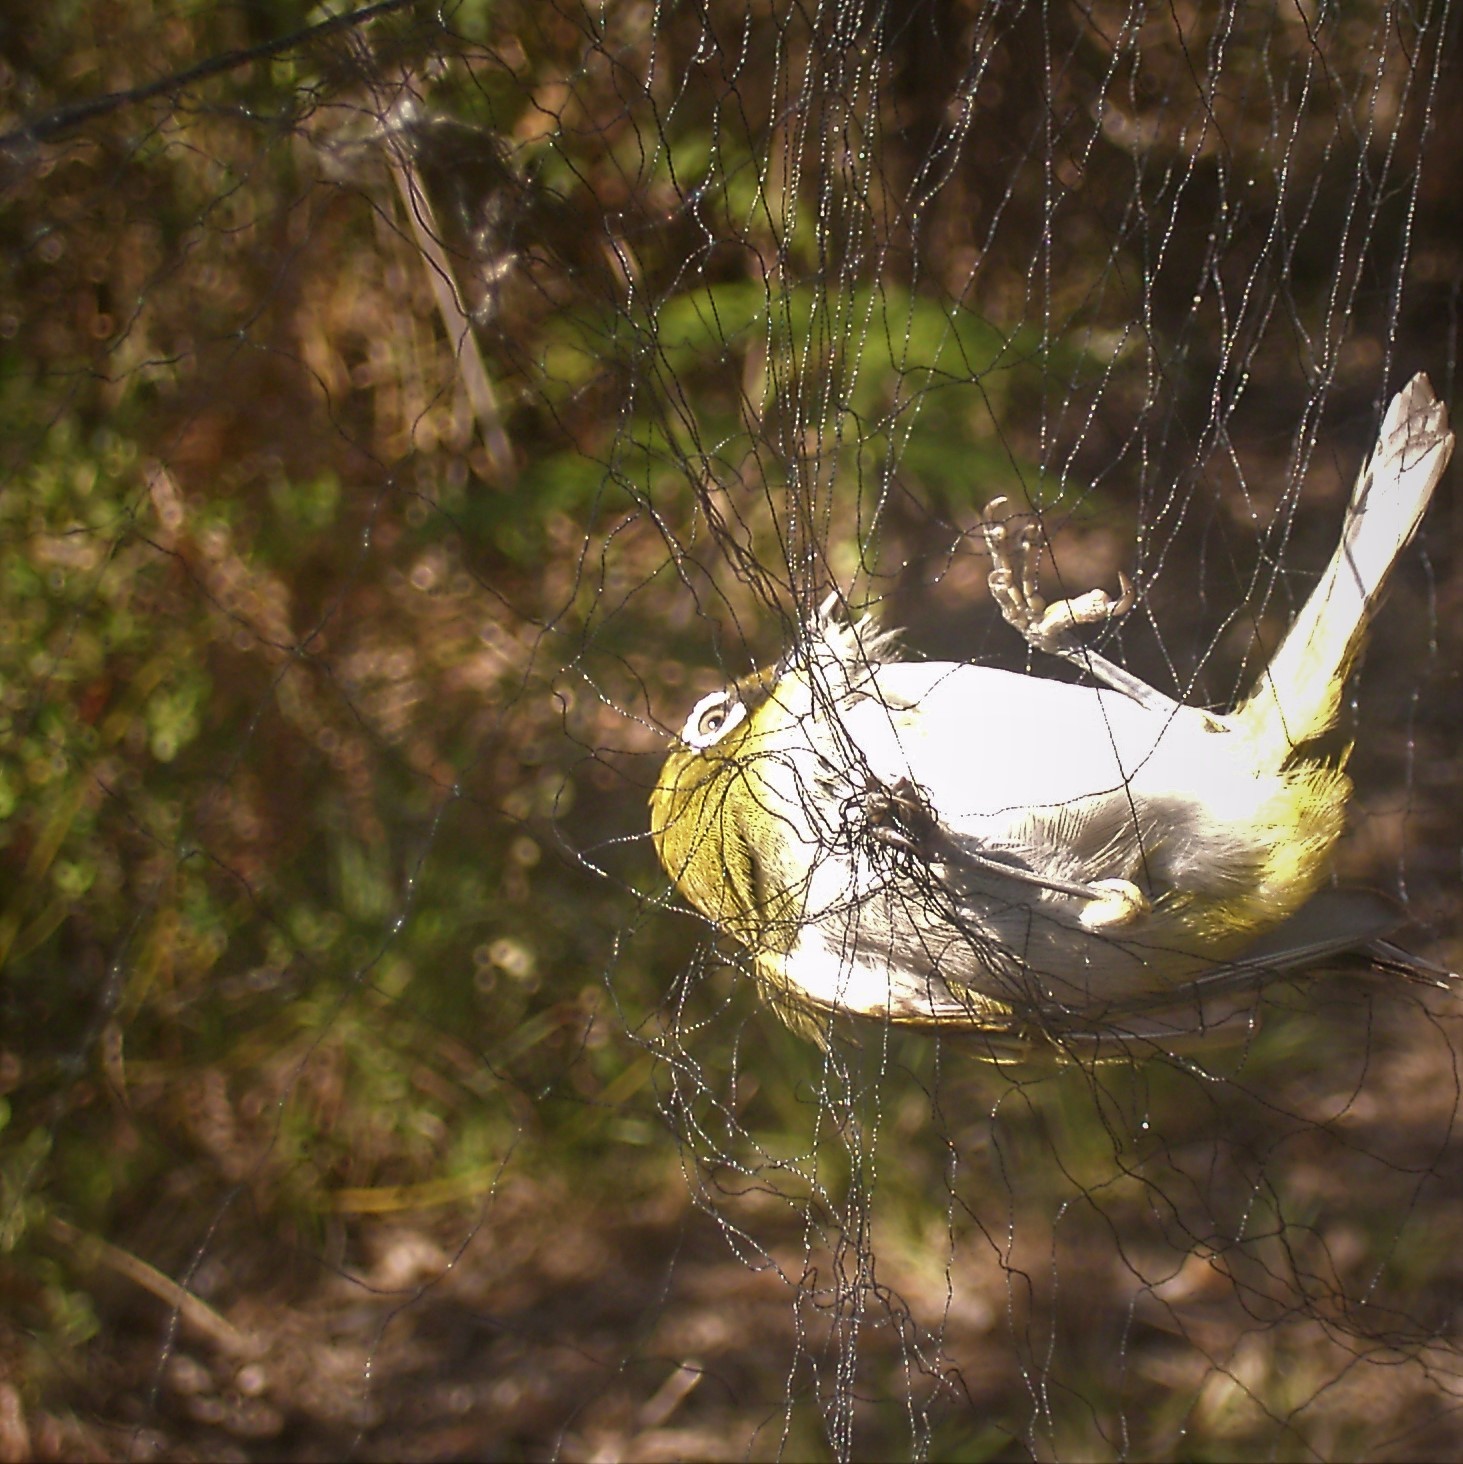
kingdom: Animalia
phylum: Chordata
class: Aves
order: Passeriformes
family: Zosteropidae
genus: Zosterops
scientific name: Zosterops virens
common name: Cape white-eye
